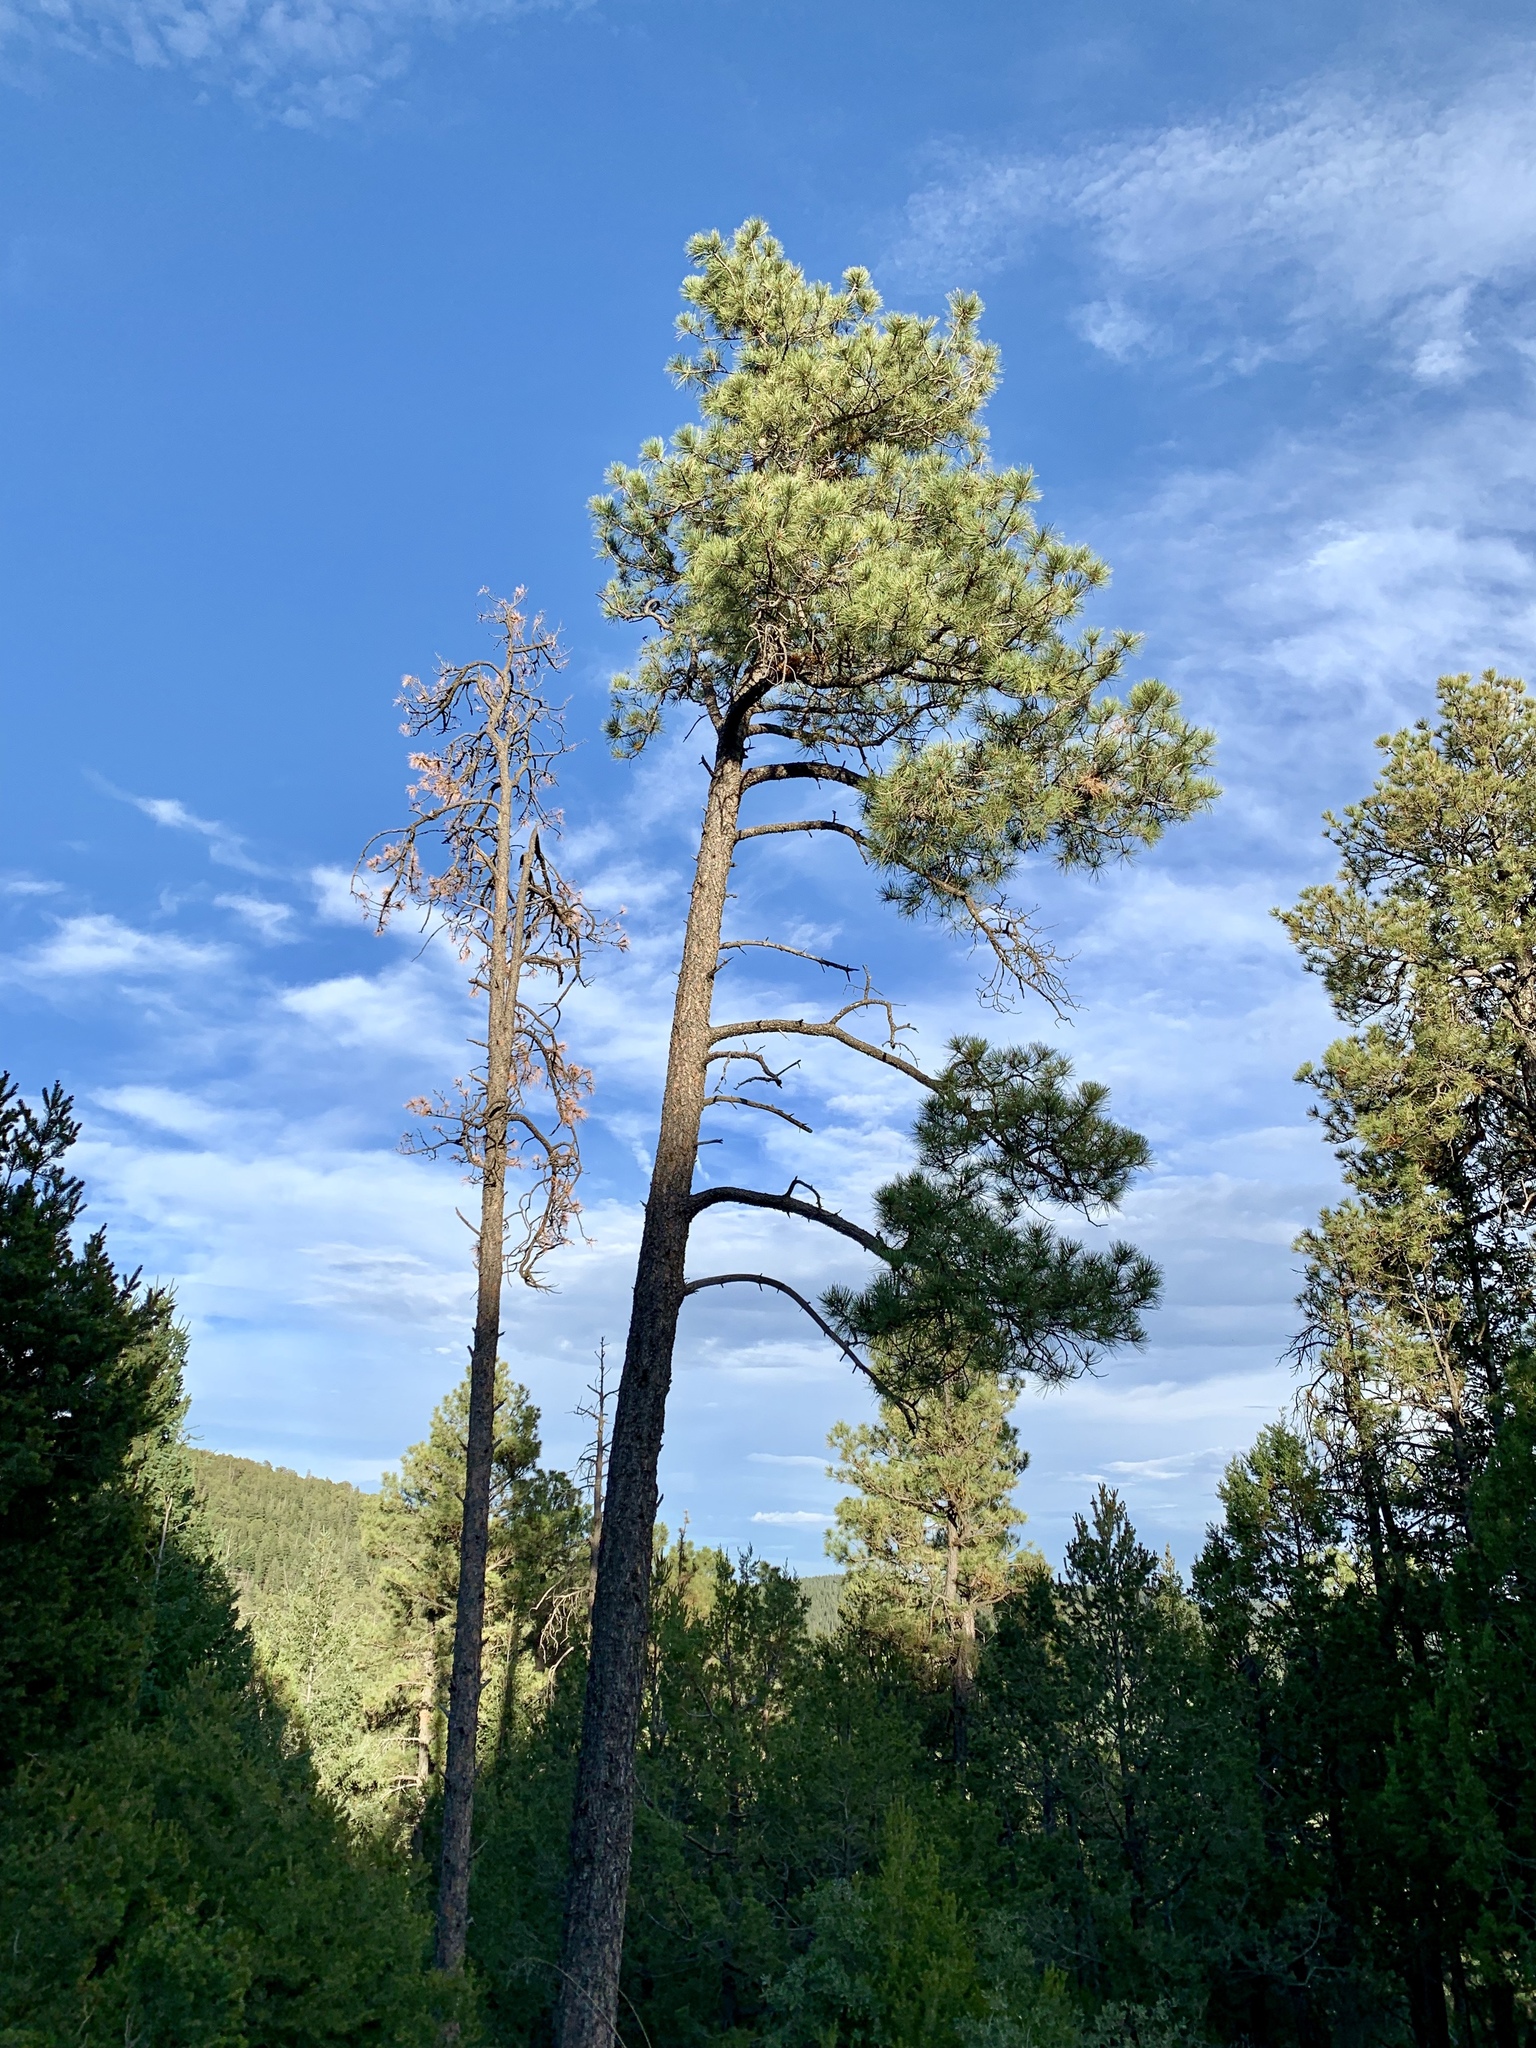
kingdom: Plantae
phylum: Tracheophyta
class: Pinopsida
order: Pinales
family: Pinaceae
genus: Pinus
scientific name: Pinus ponderosa
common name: Western yellow-pine
